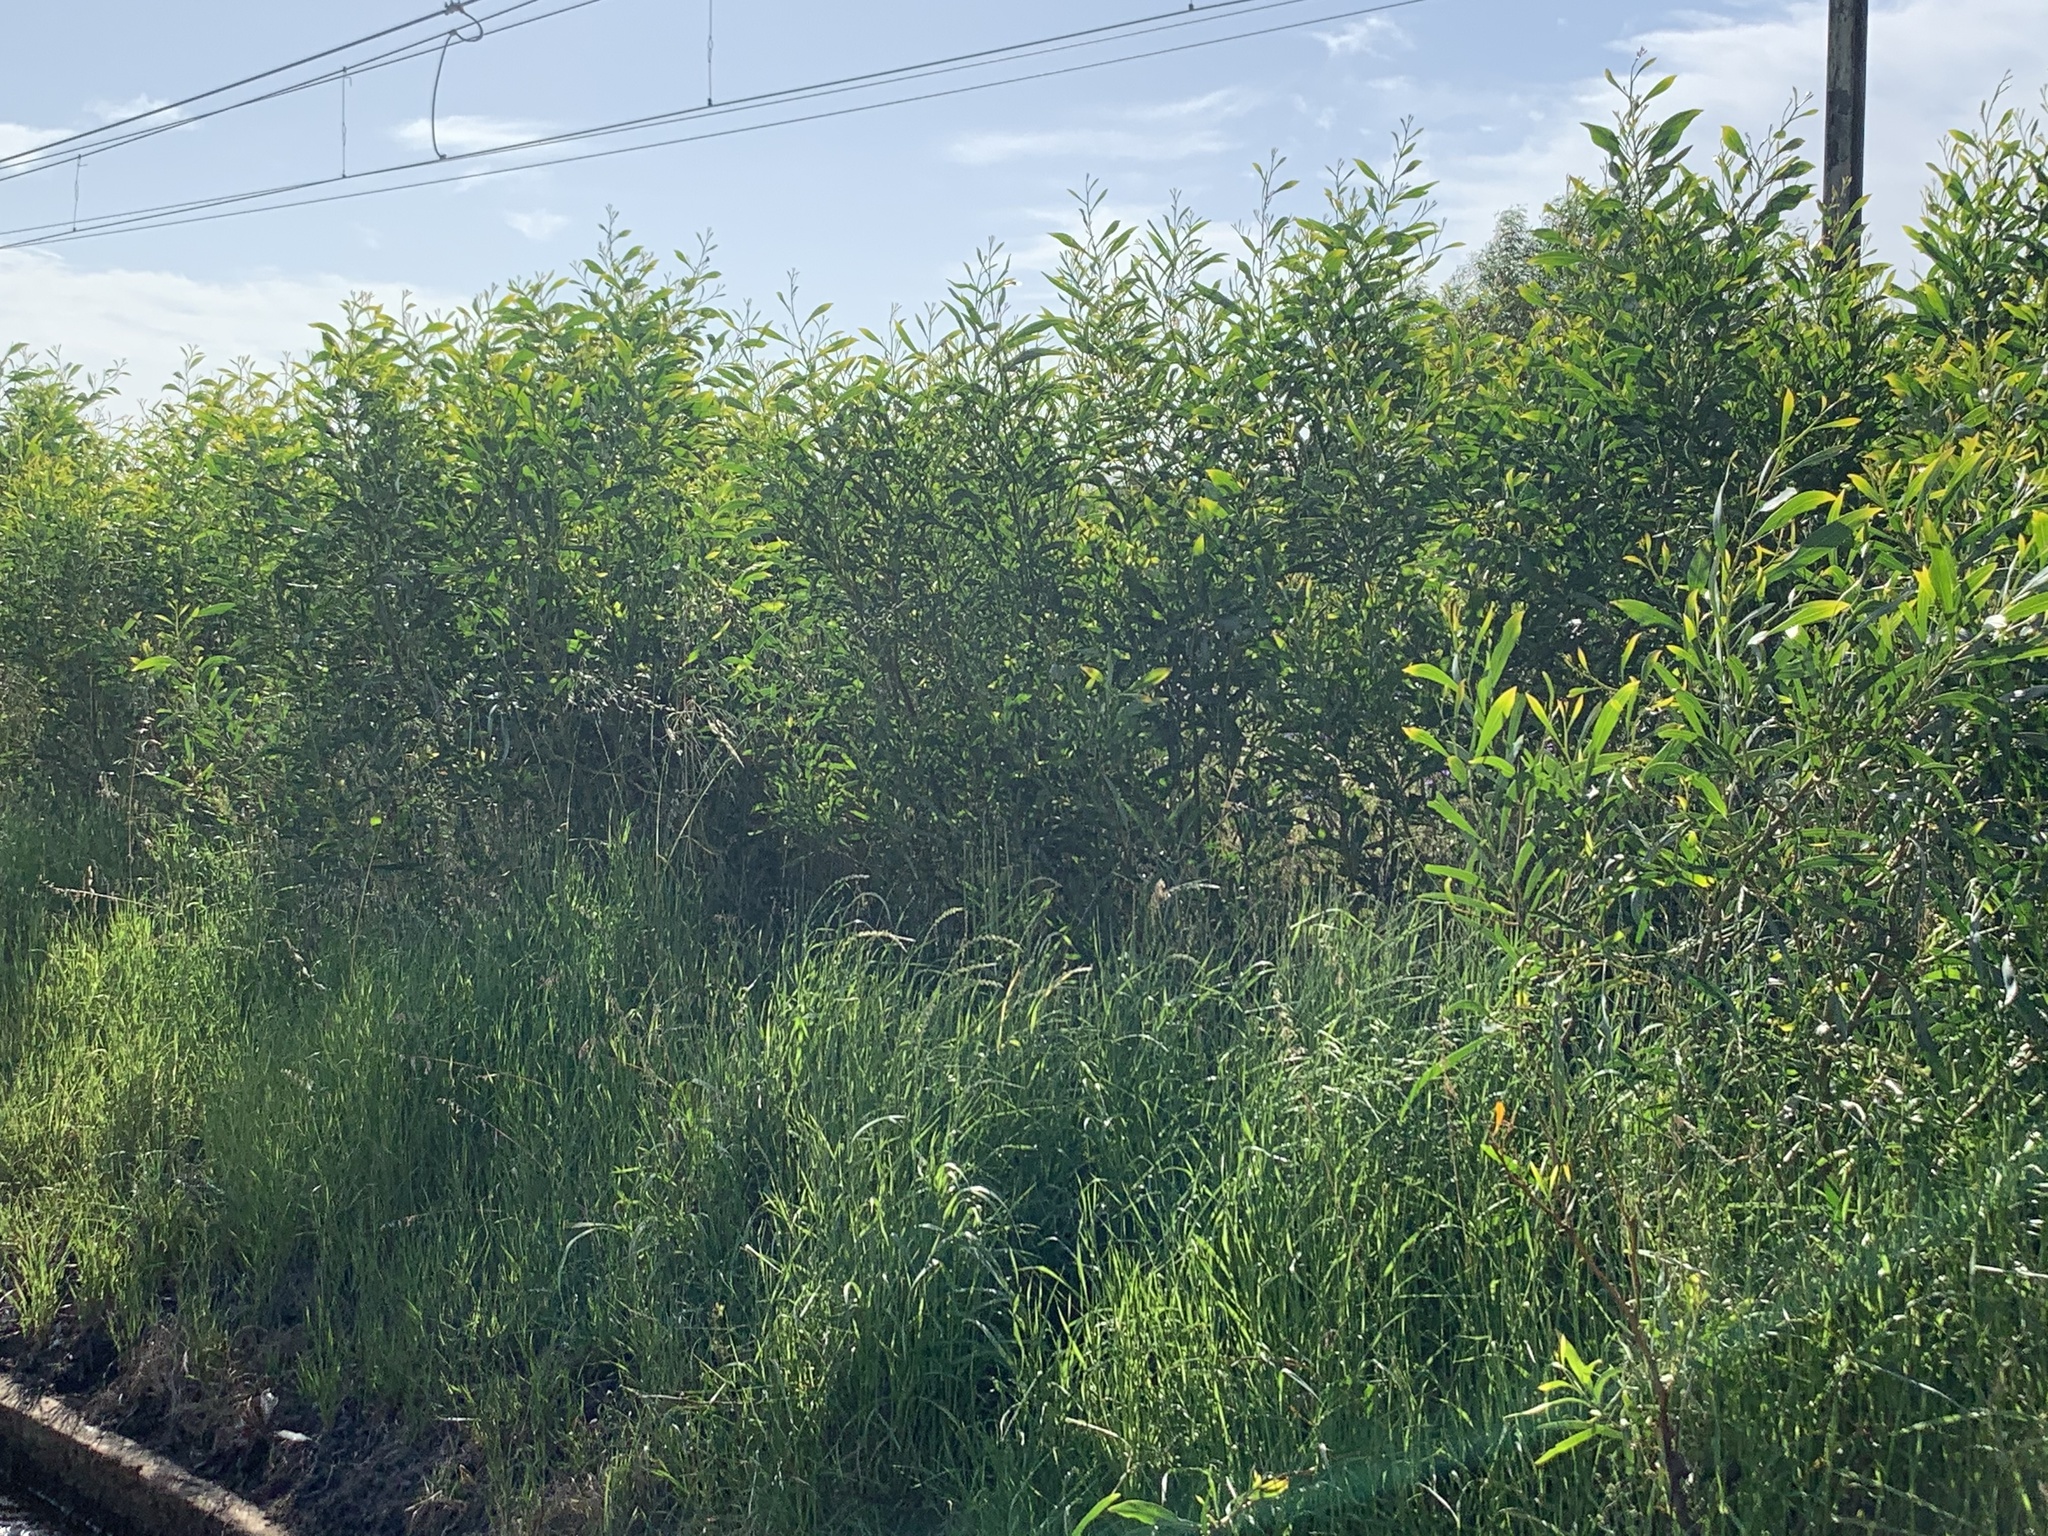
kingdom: Plantae
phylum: Tracheophyta
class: Magnoliopsida
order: Fabales
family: Fabaceae
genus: Acacia
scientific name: Acacia saligna
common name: Orange wattle
